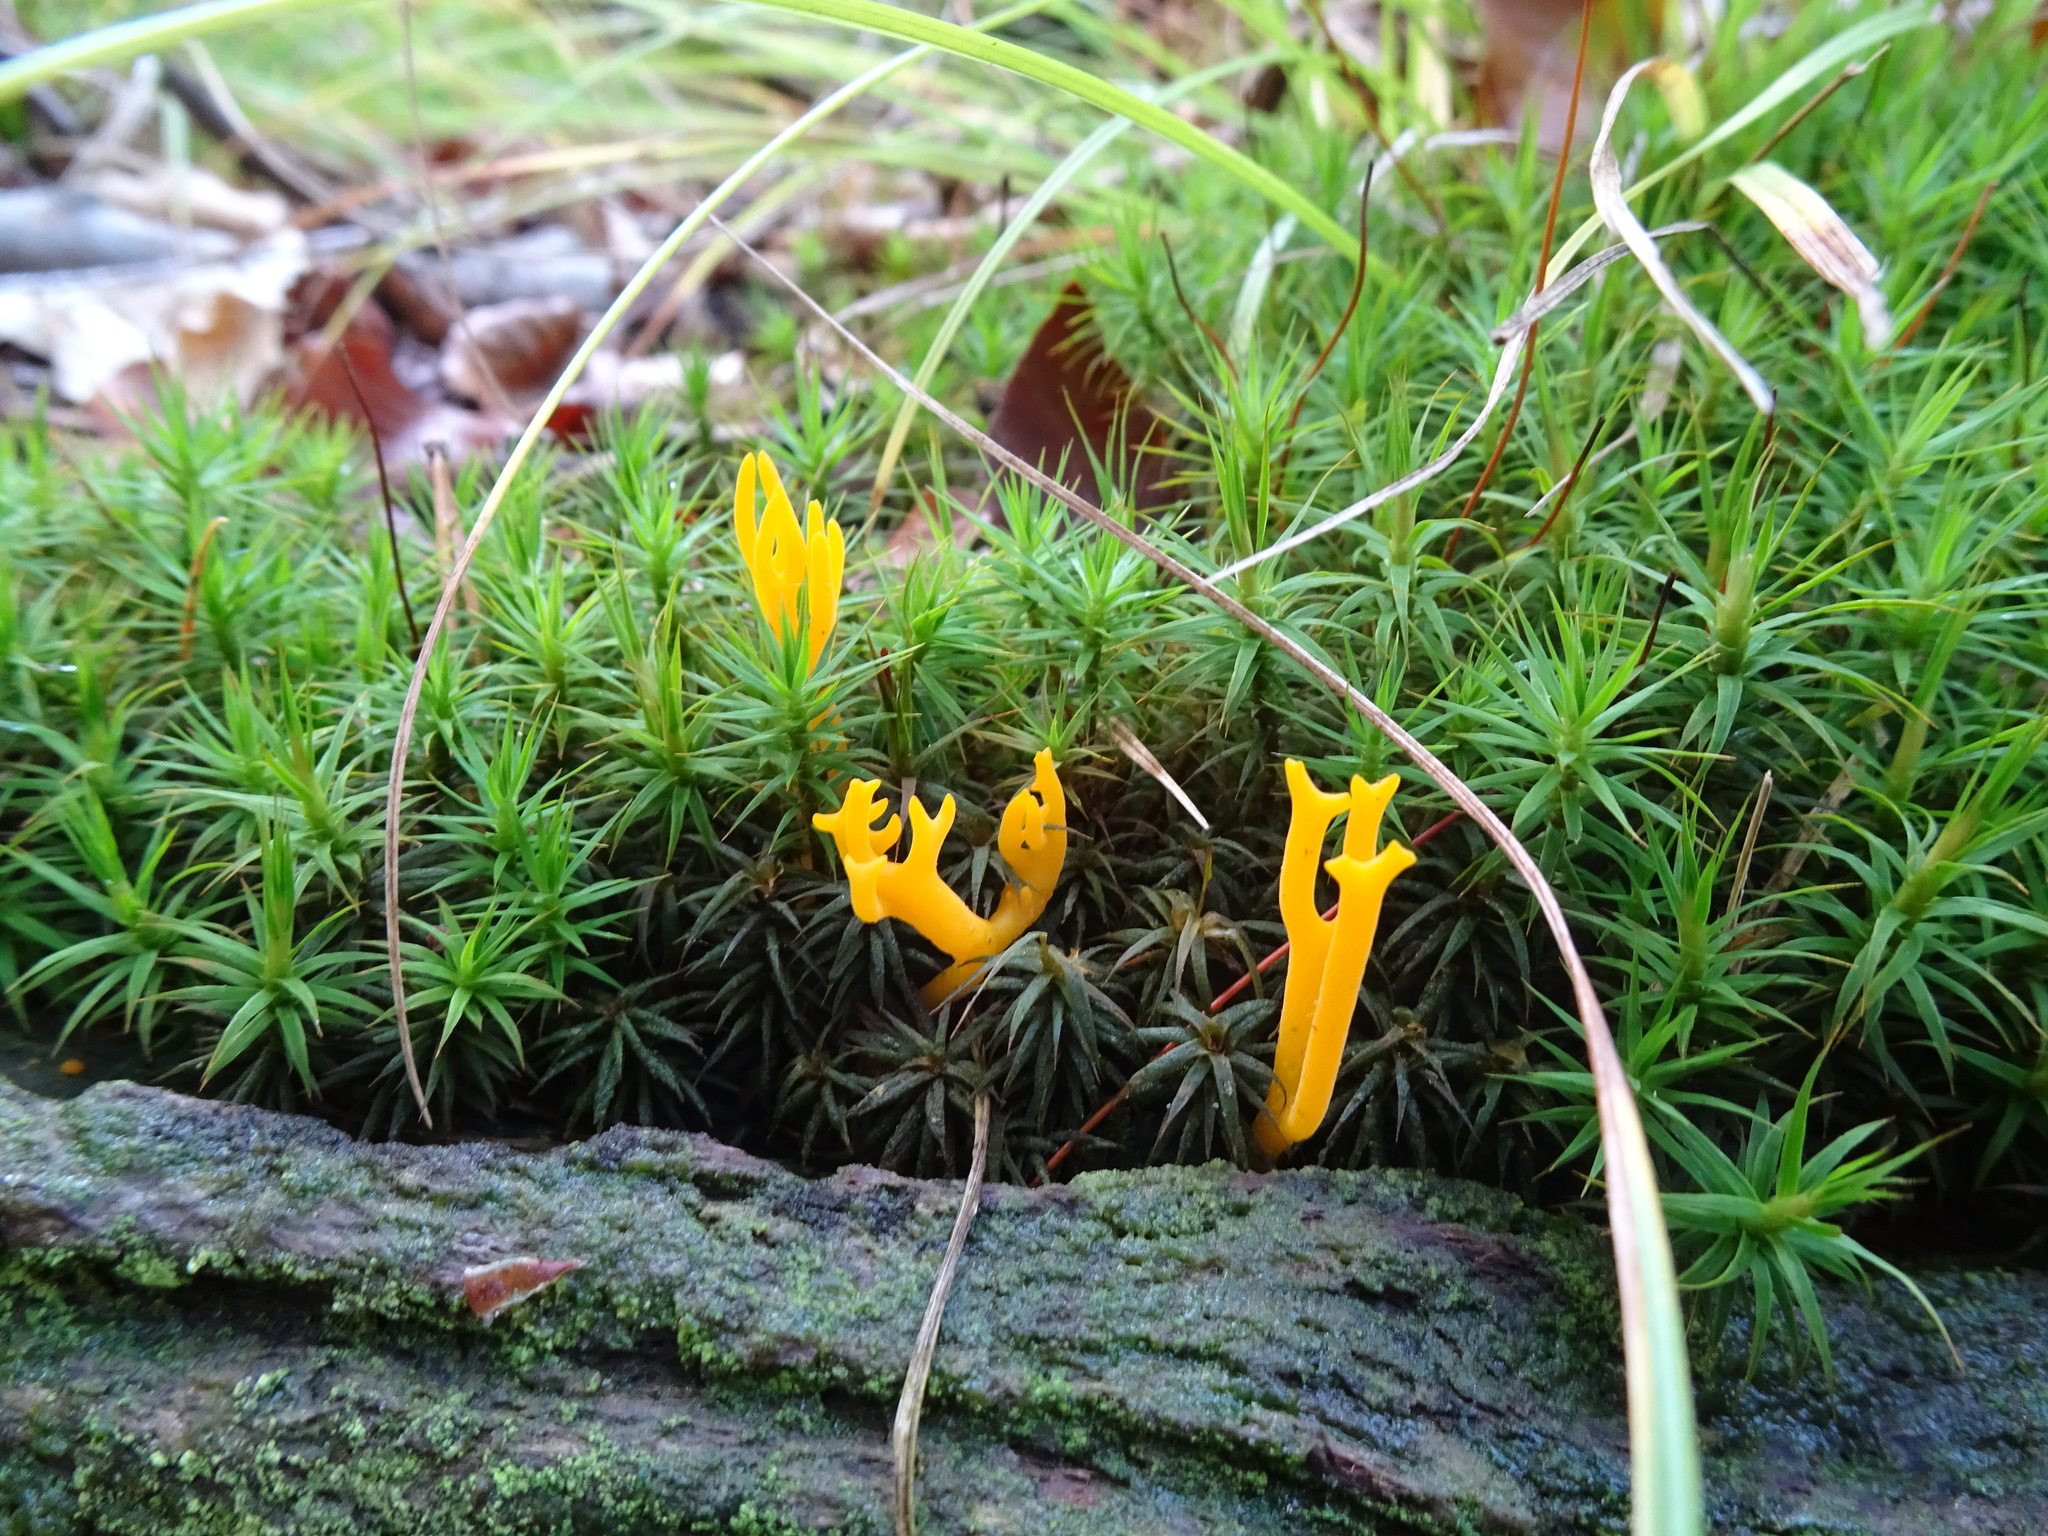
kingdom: Fungi
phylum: Basidiomycota
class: Dacrymycetes
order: Dacrymycetales
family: Dacrymycetaceae
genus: Calocera
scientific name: Calocera viscosa
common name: Yellow stagshorn
